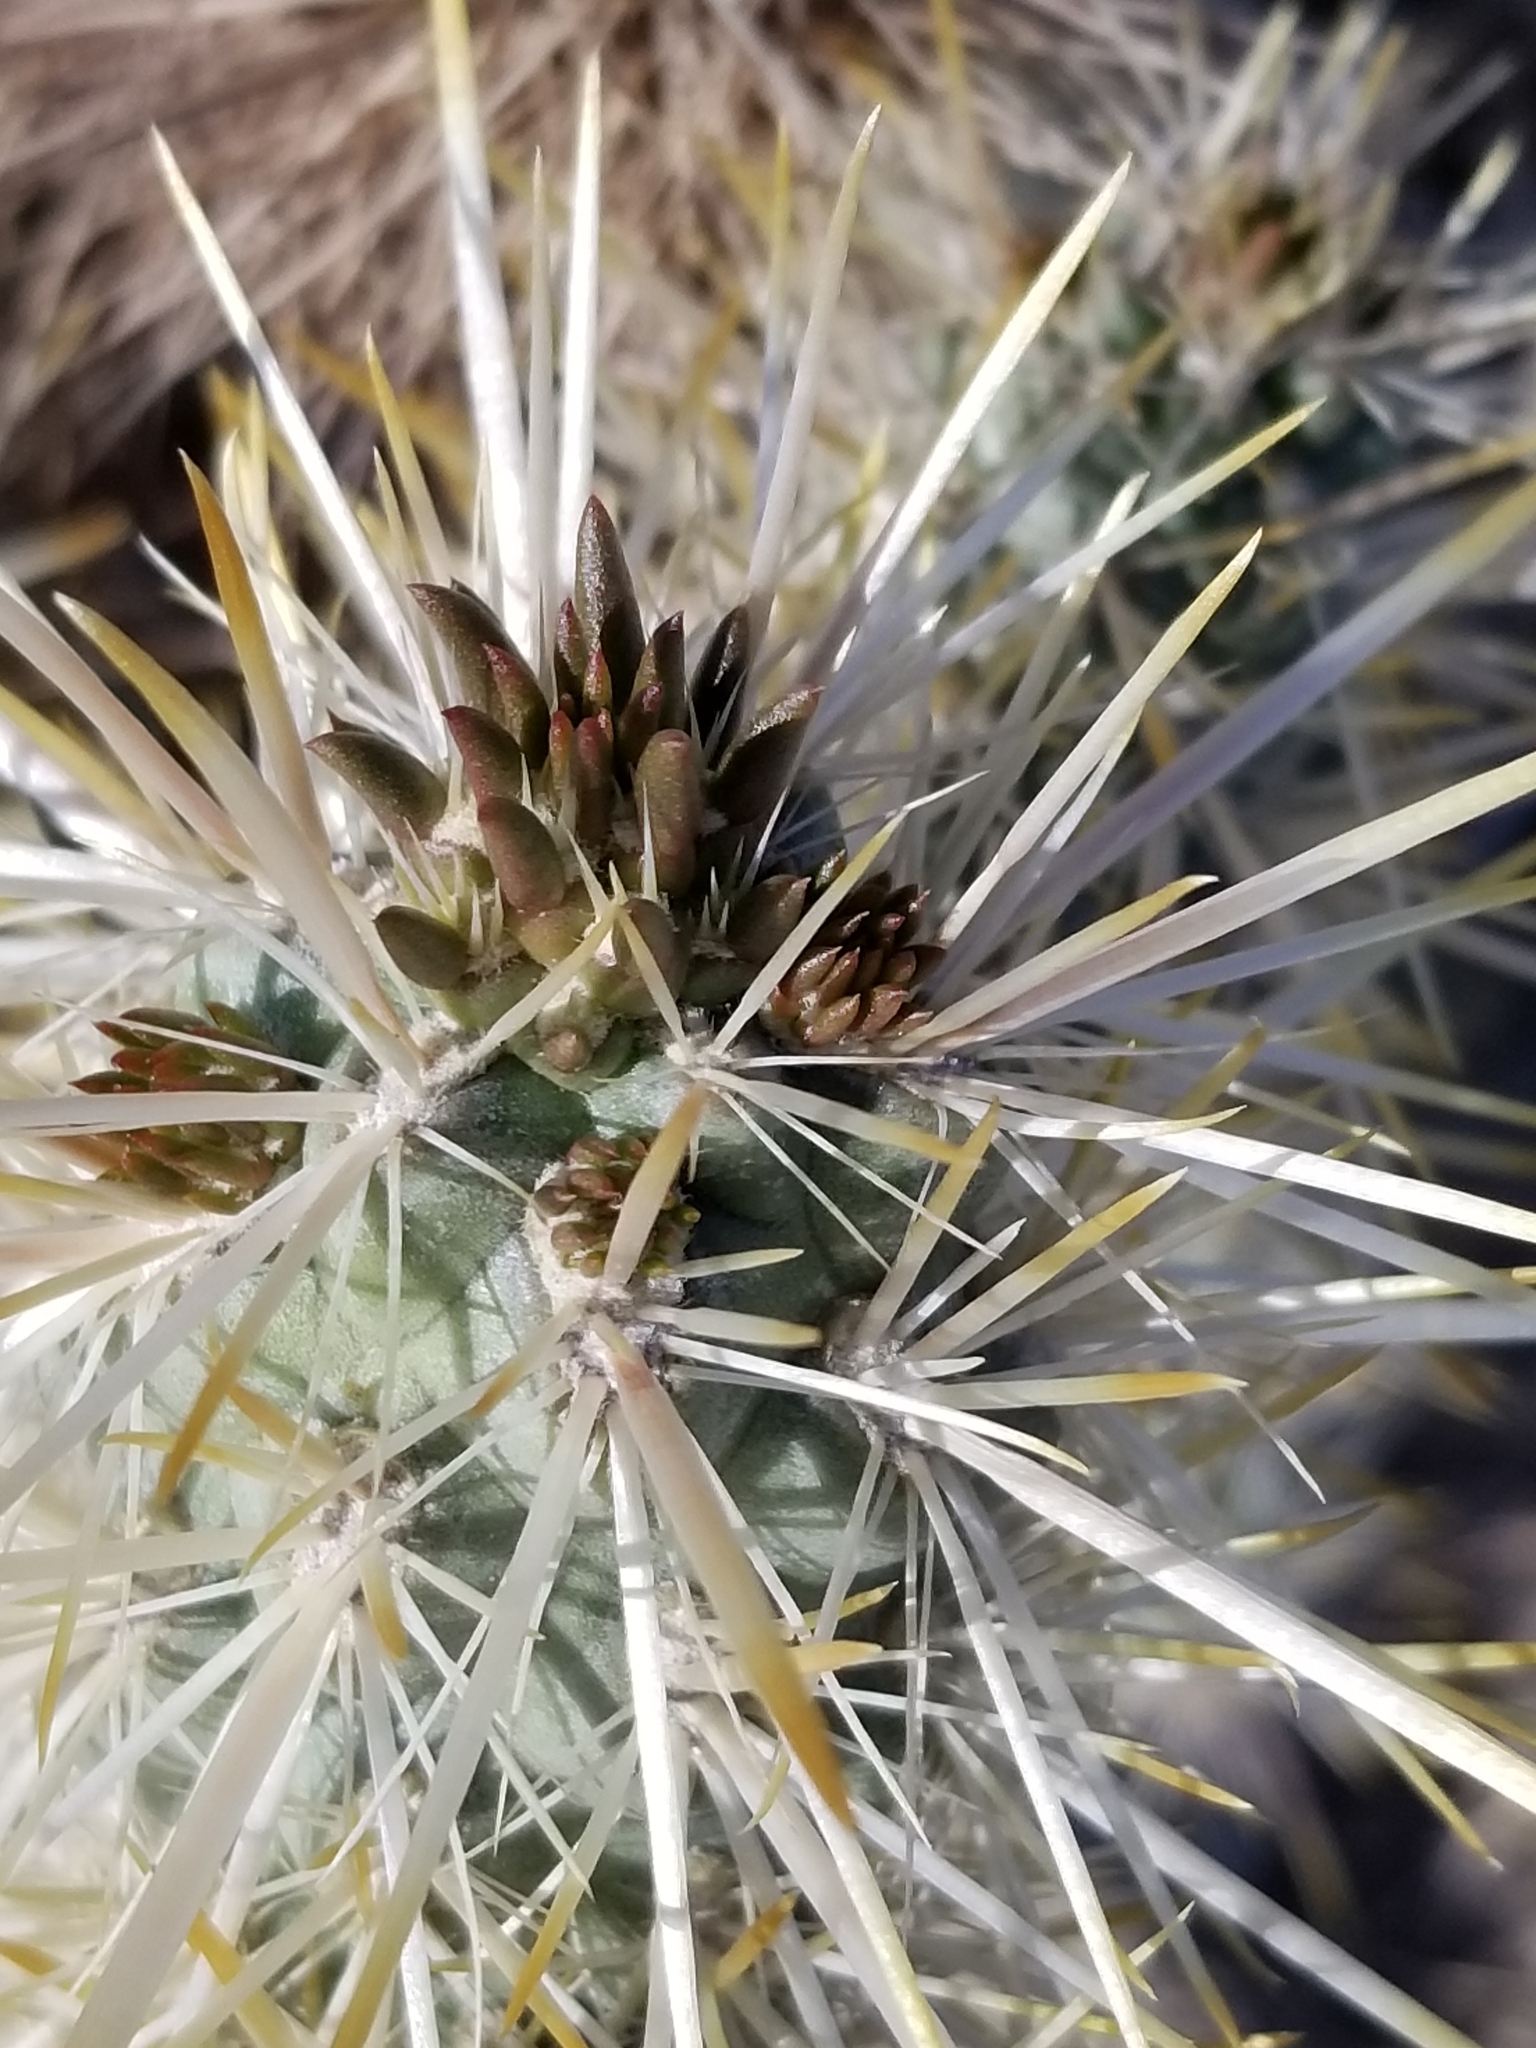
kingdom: Plantae
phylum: Tracheophyta
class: Magnoliopsida
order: Caryophyllales
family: Cactaceae
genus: Cylindropuntia
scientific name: Cylindropuntia echinocarpa
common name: Ground cholla
